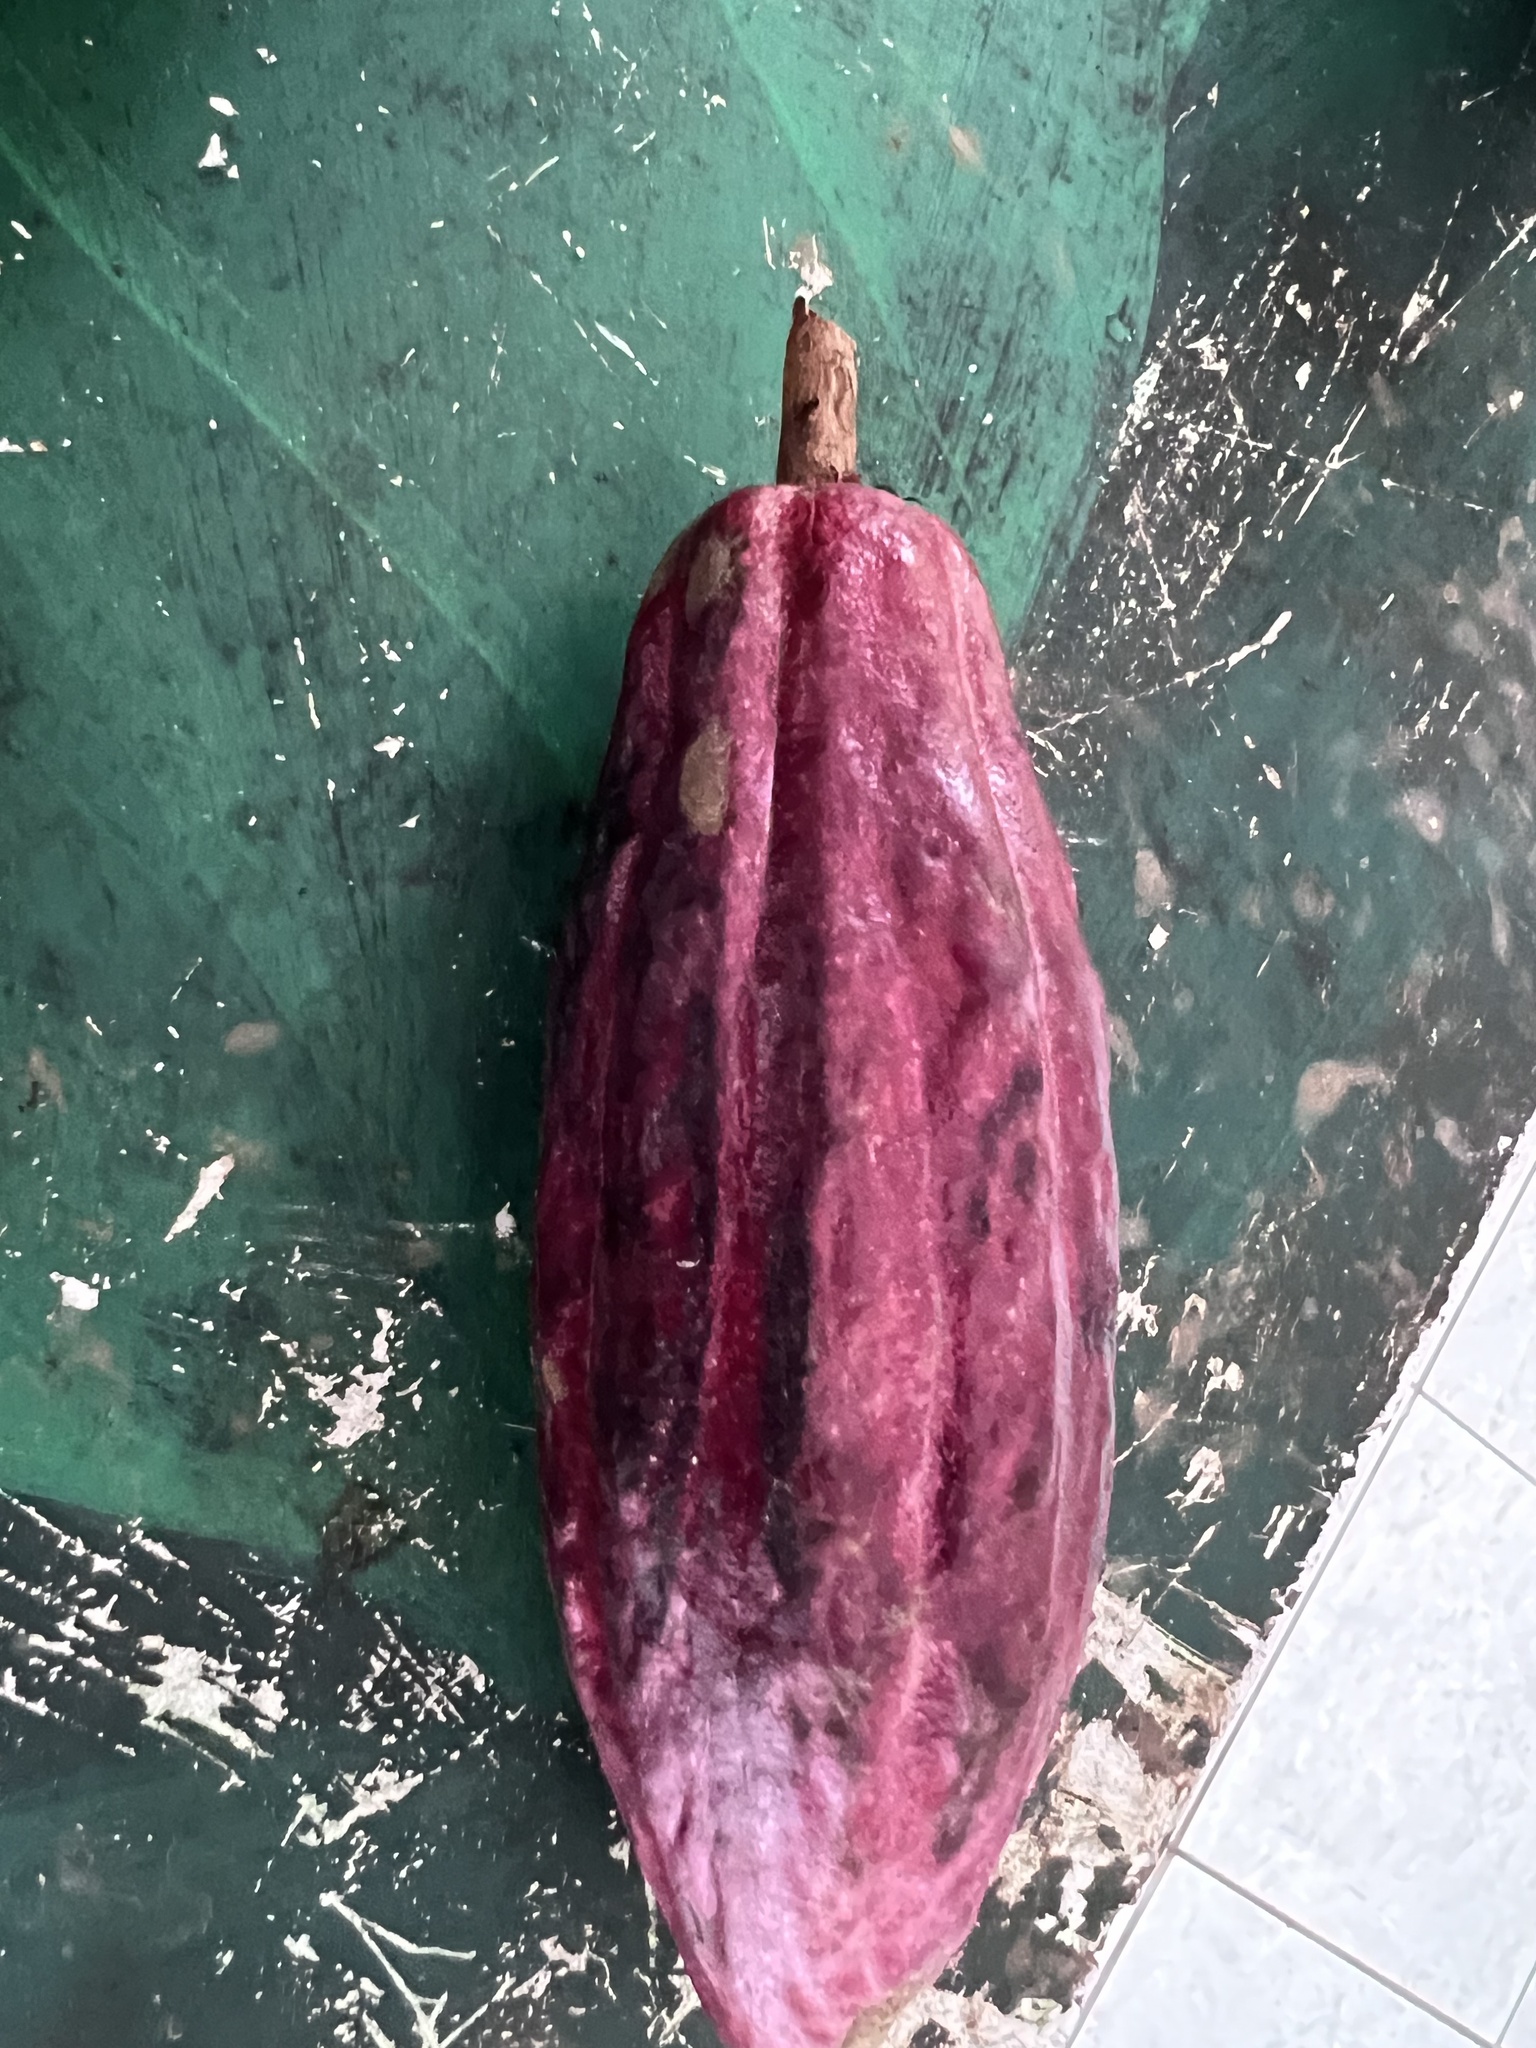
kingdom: Plantae
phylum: Tracheophyta
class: Magnoliopsida
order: Malvales
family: Malvaceae
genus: Theobroma
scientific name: Theobroma cacao
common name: Cocoa
